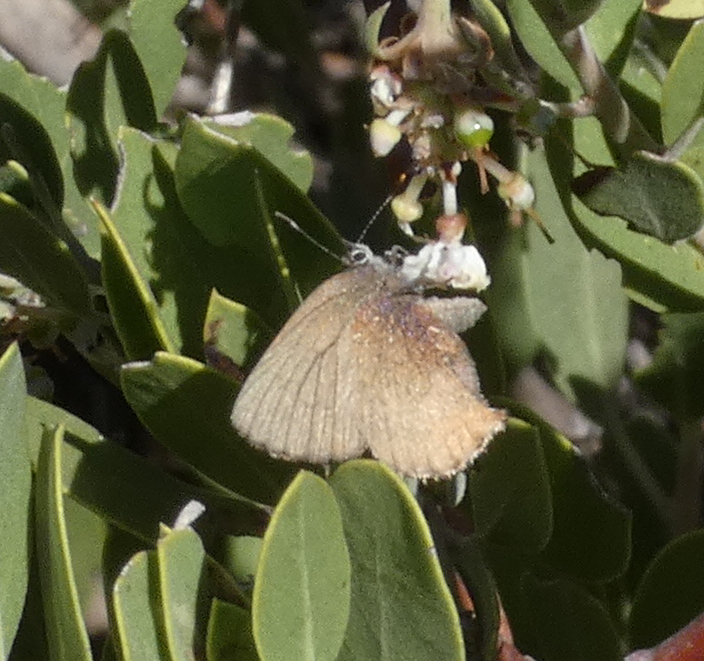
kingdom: Animalia
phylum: Arthropoda
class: Insecta
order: Lepidoptera
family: Lycaenidae
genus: Incisalia
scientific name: Incisalia irioides
